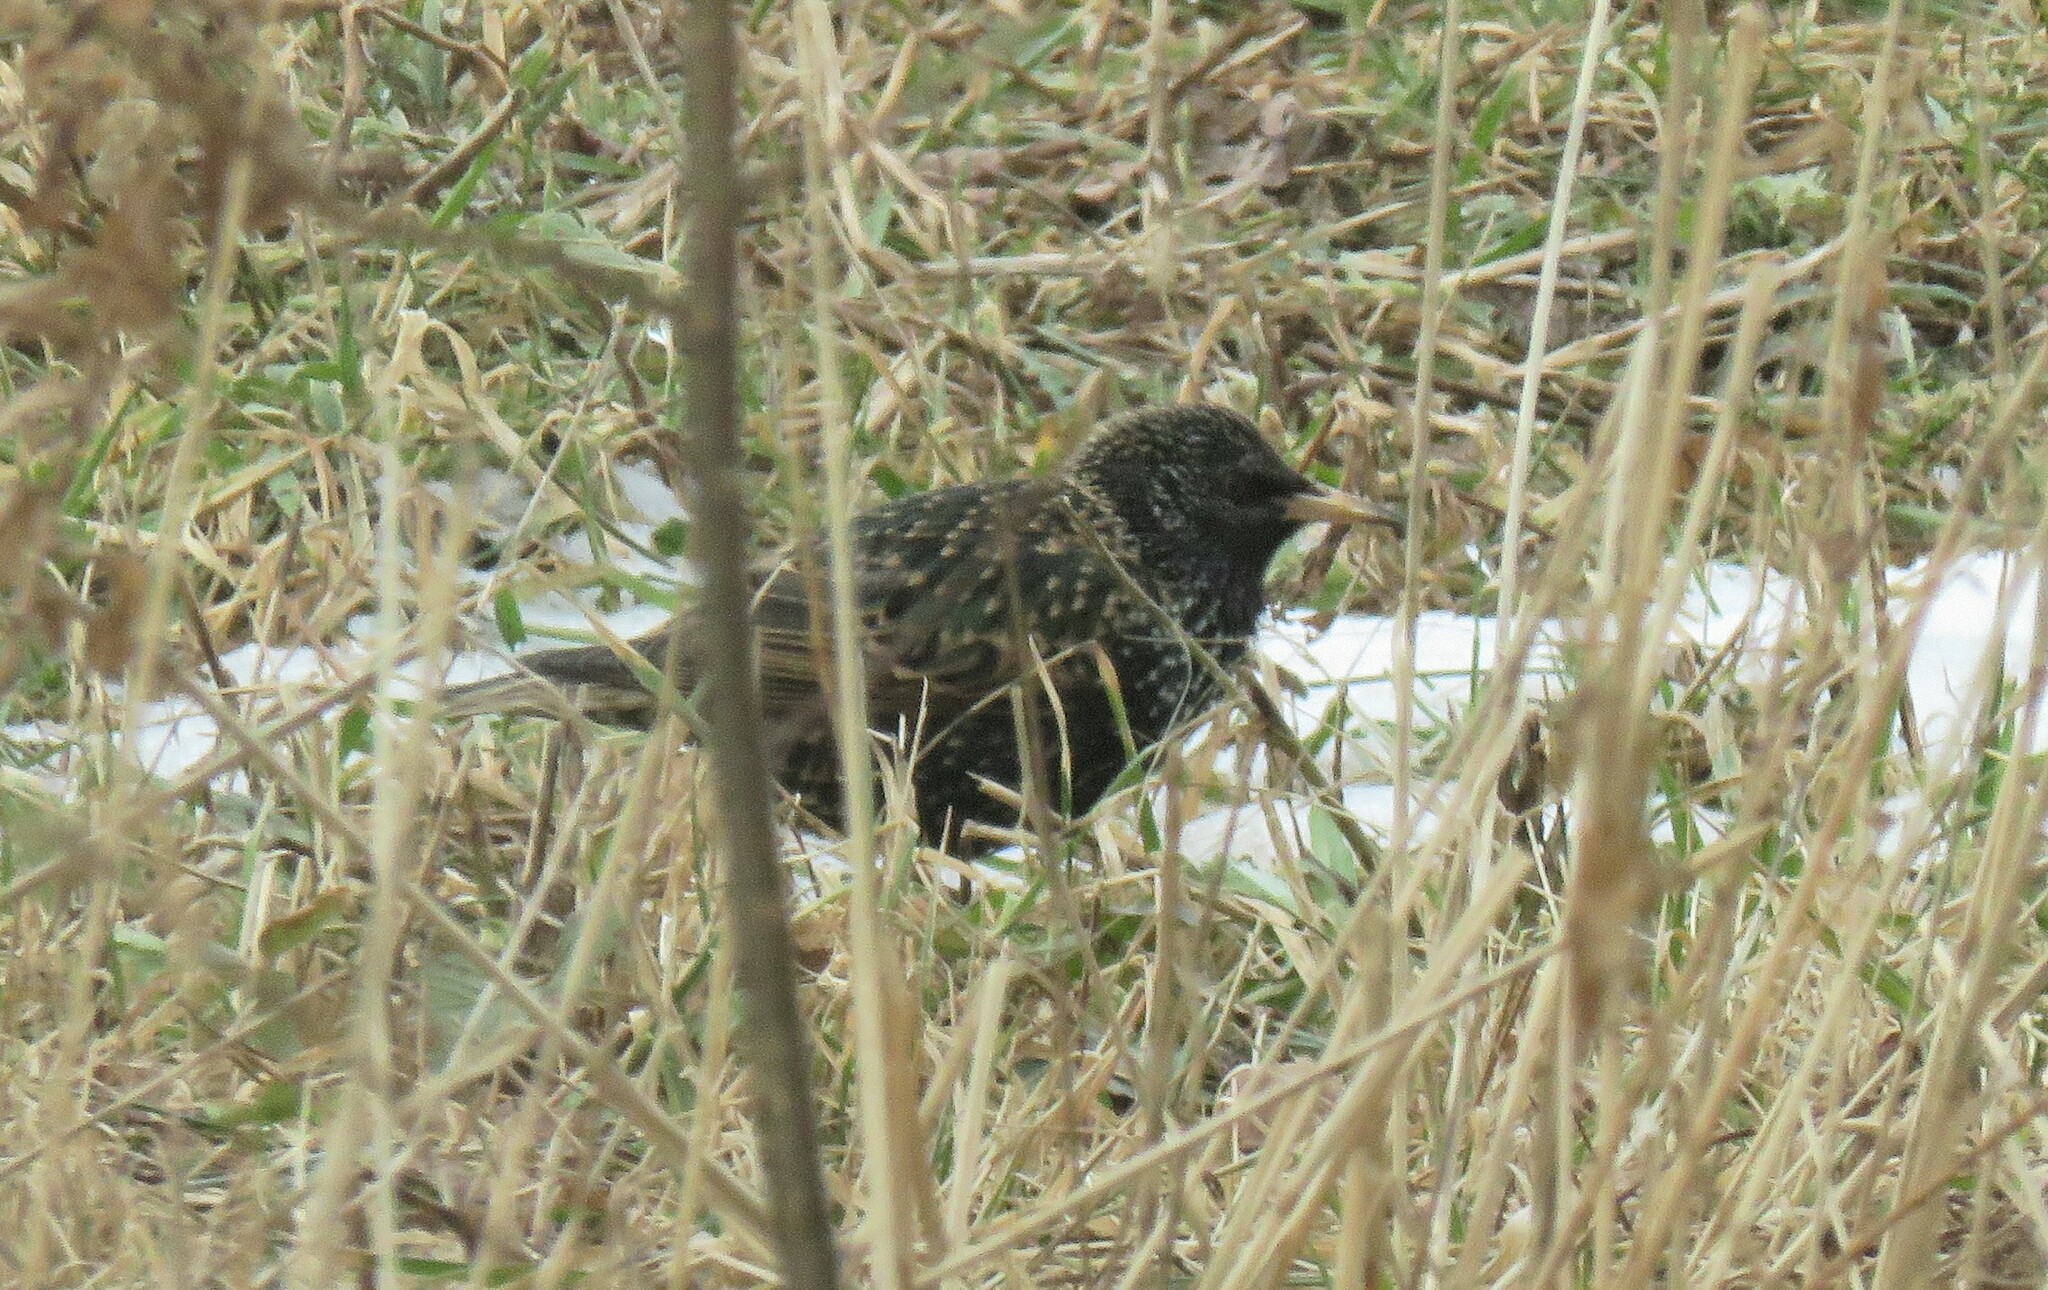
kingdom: Animalia
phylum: Chordata
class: Aves
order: Passeriformes
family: Sturnidae
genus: Sturnus
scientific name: Sturnus vulgaris
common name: Common starling
